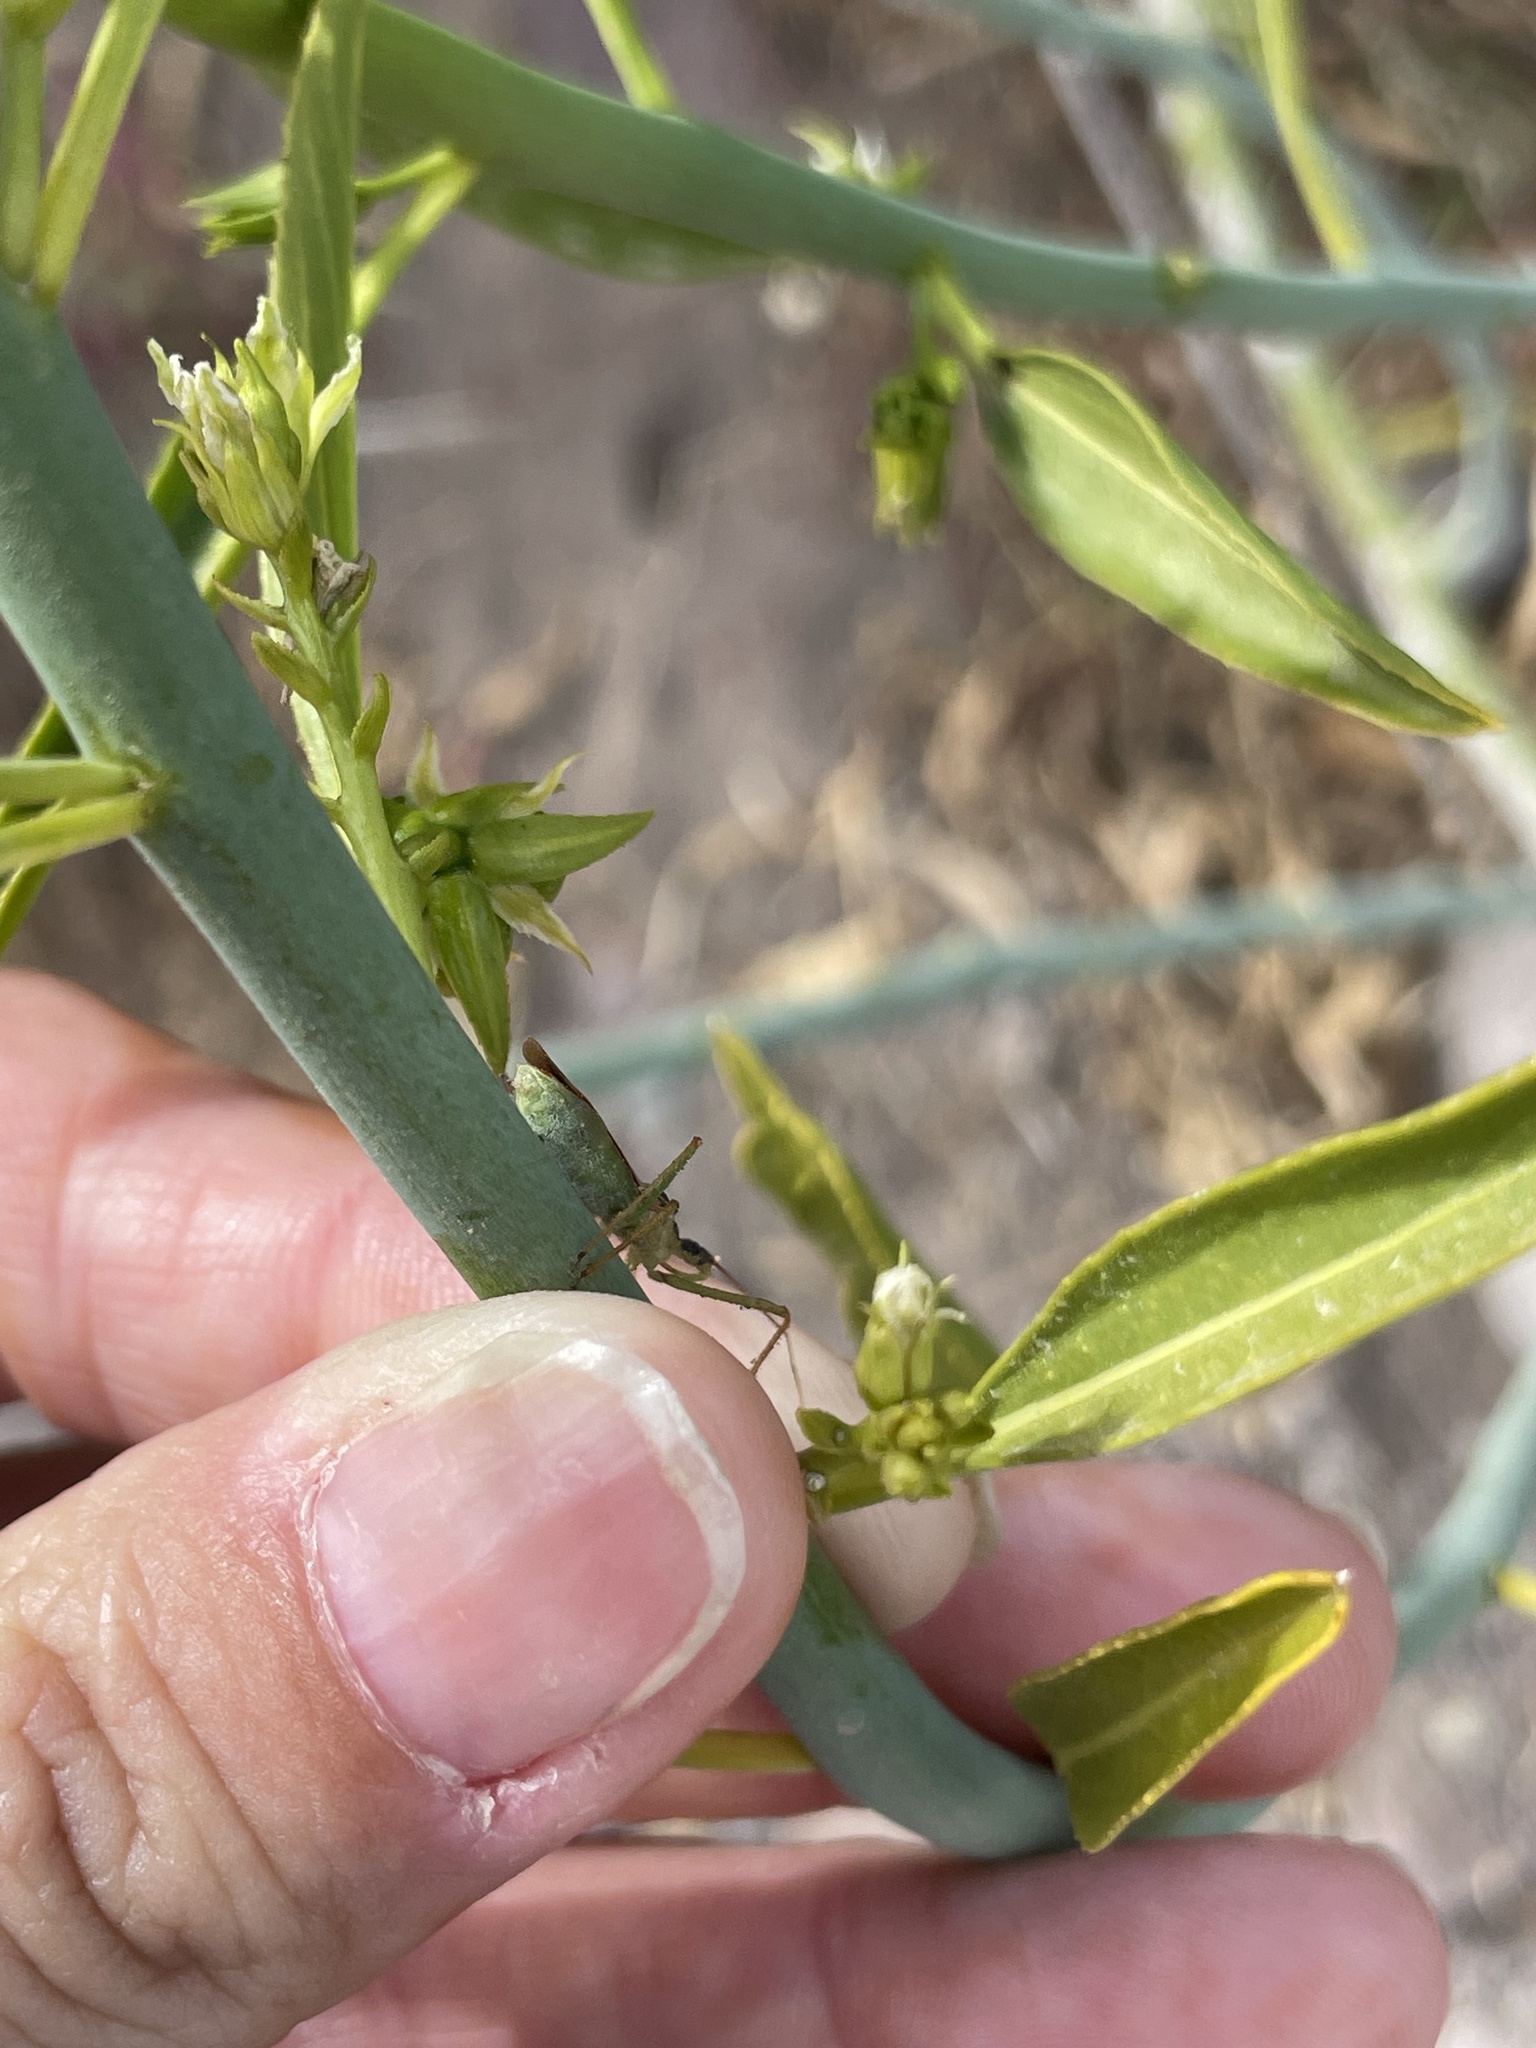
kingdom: Plantae
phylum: Tracheophyta
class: Magnoliopsida
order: Malpighiales
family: Euphorbiaceae
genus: Ditaxis
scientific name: Ditaxis brandegeei
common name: Sonoran silverbush
